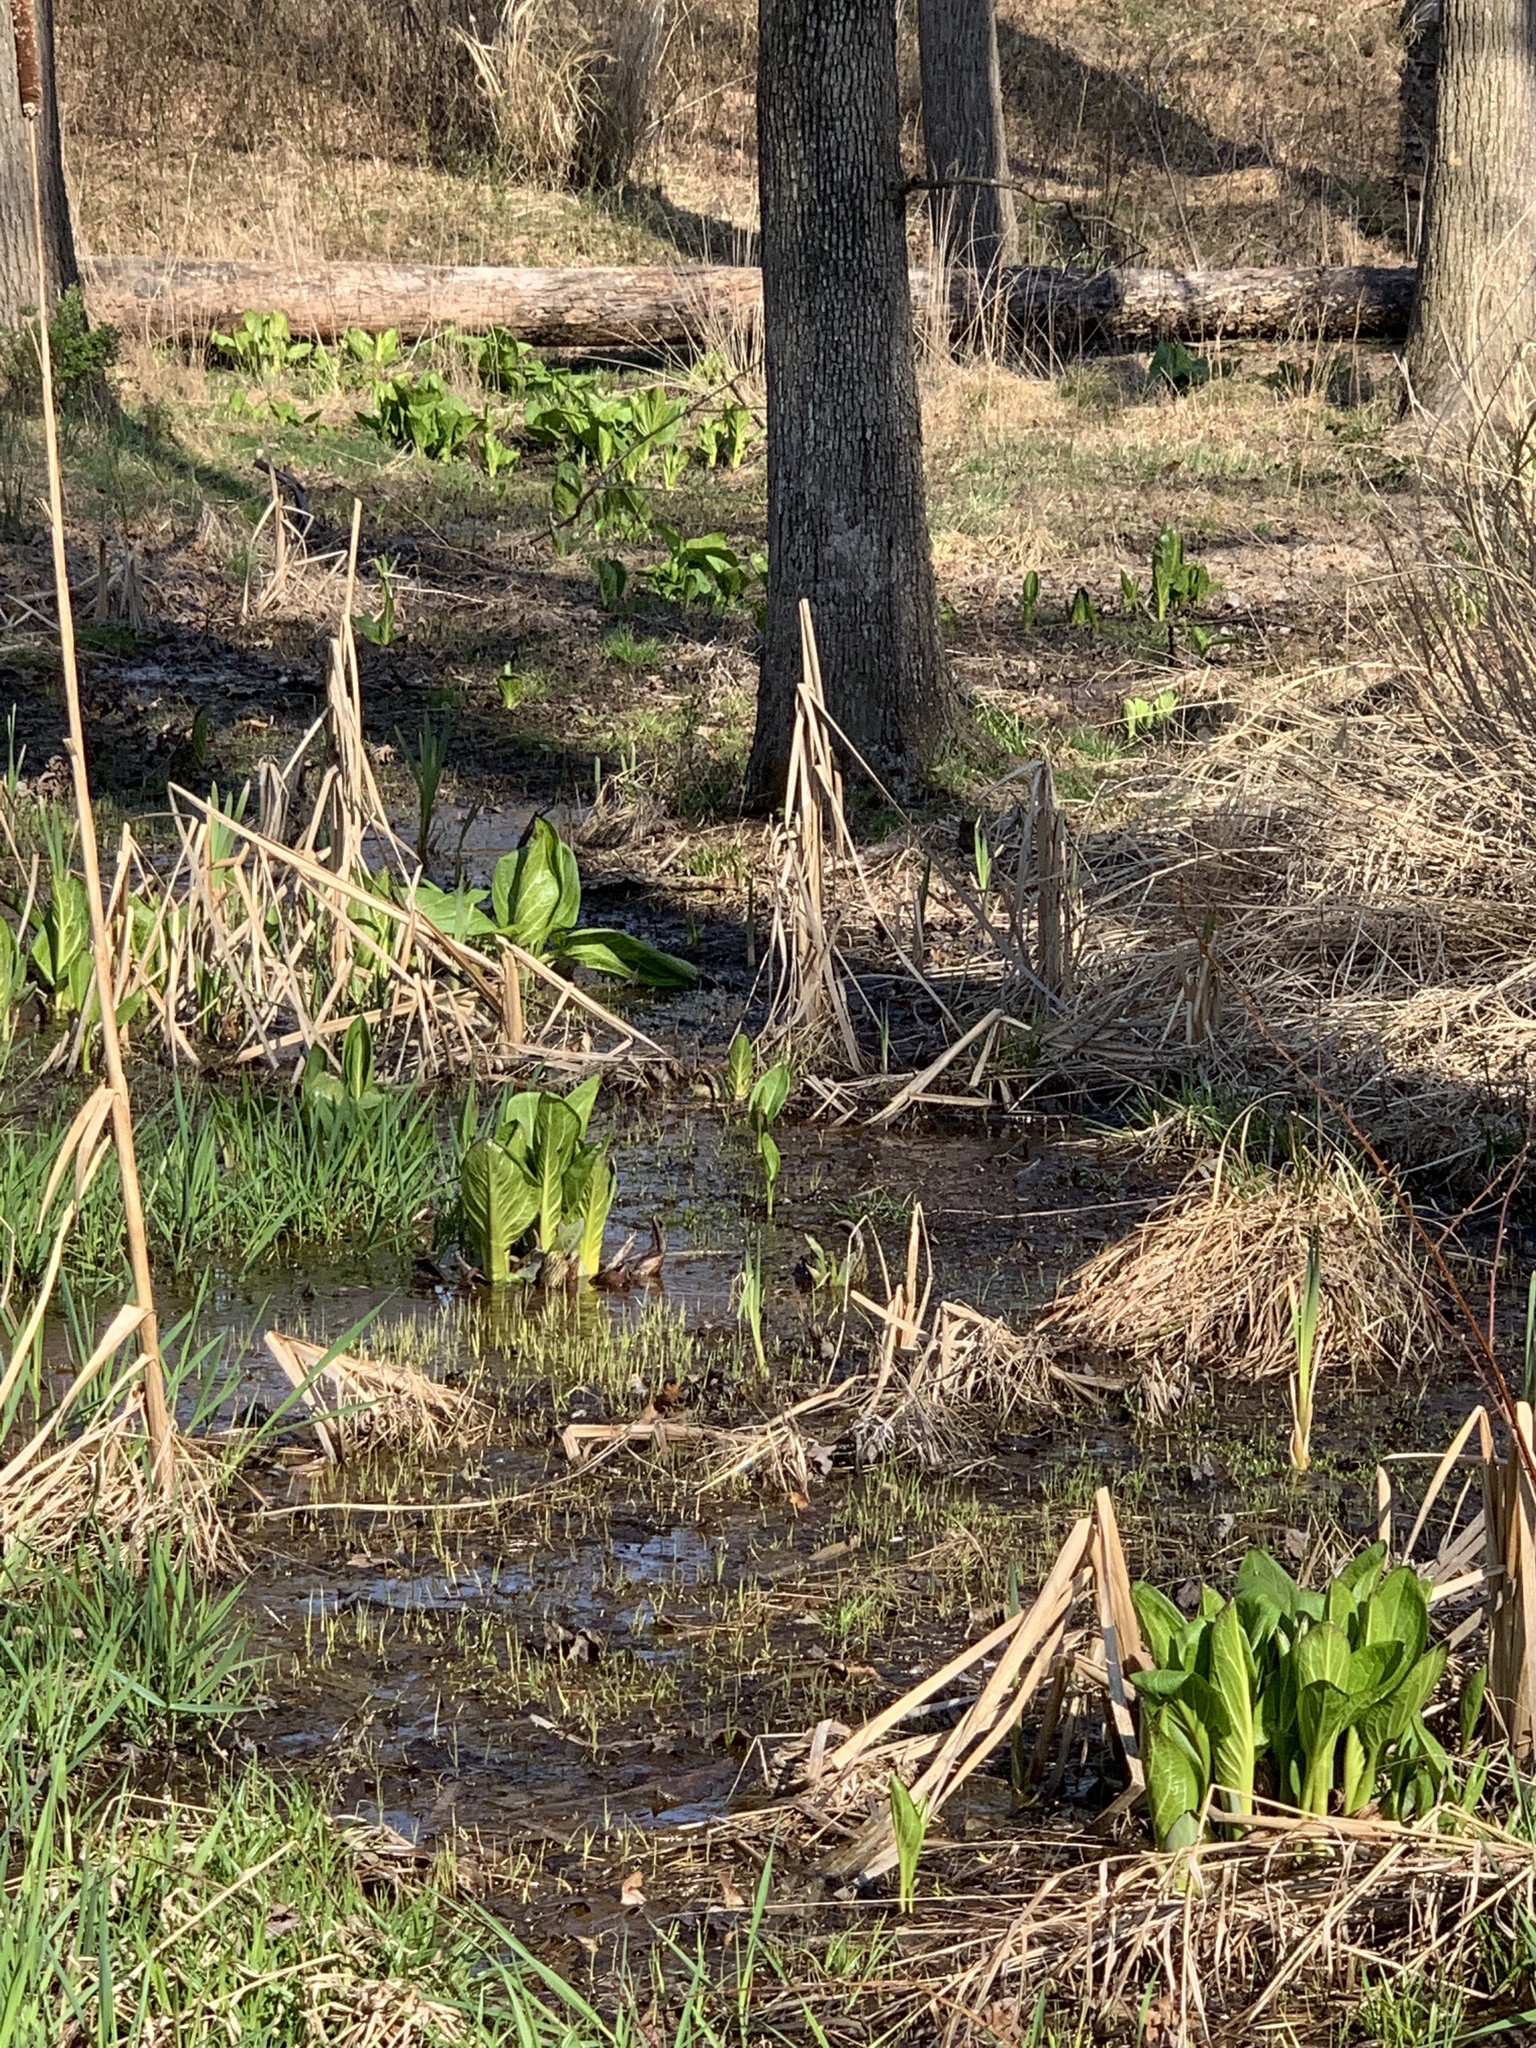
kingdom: Plantae
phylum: Tracheophyta
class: Liliopsida
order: Alismatales
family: Araceae
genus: Symplocarpus
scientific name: Symplocarpus foetidus
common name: Eastern skunk cabbage
